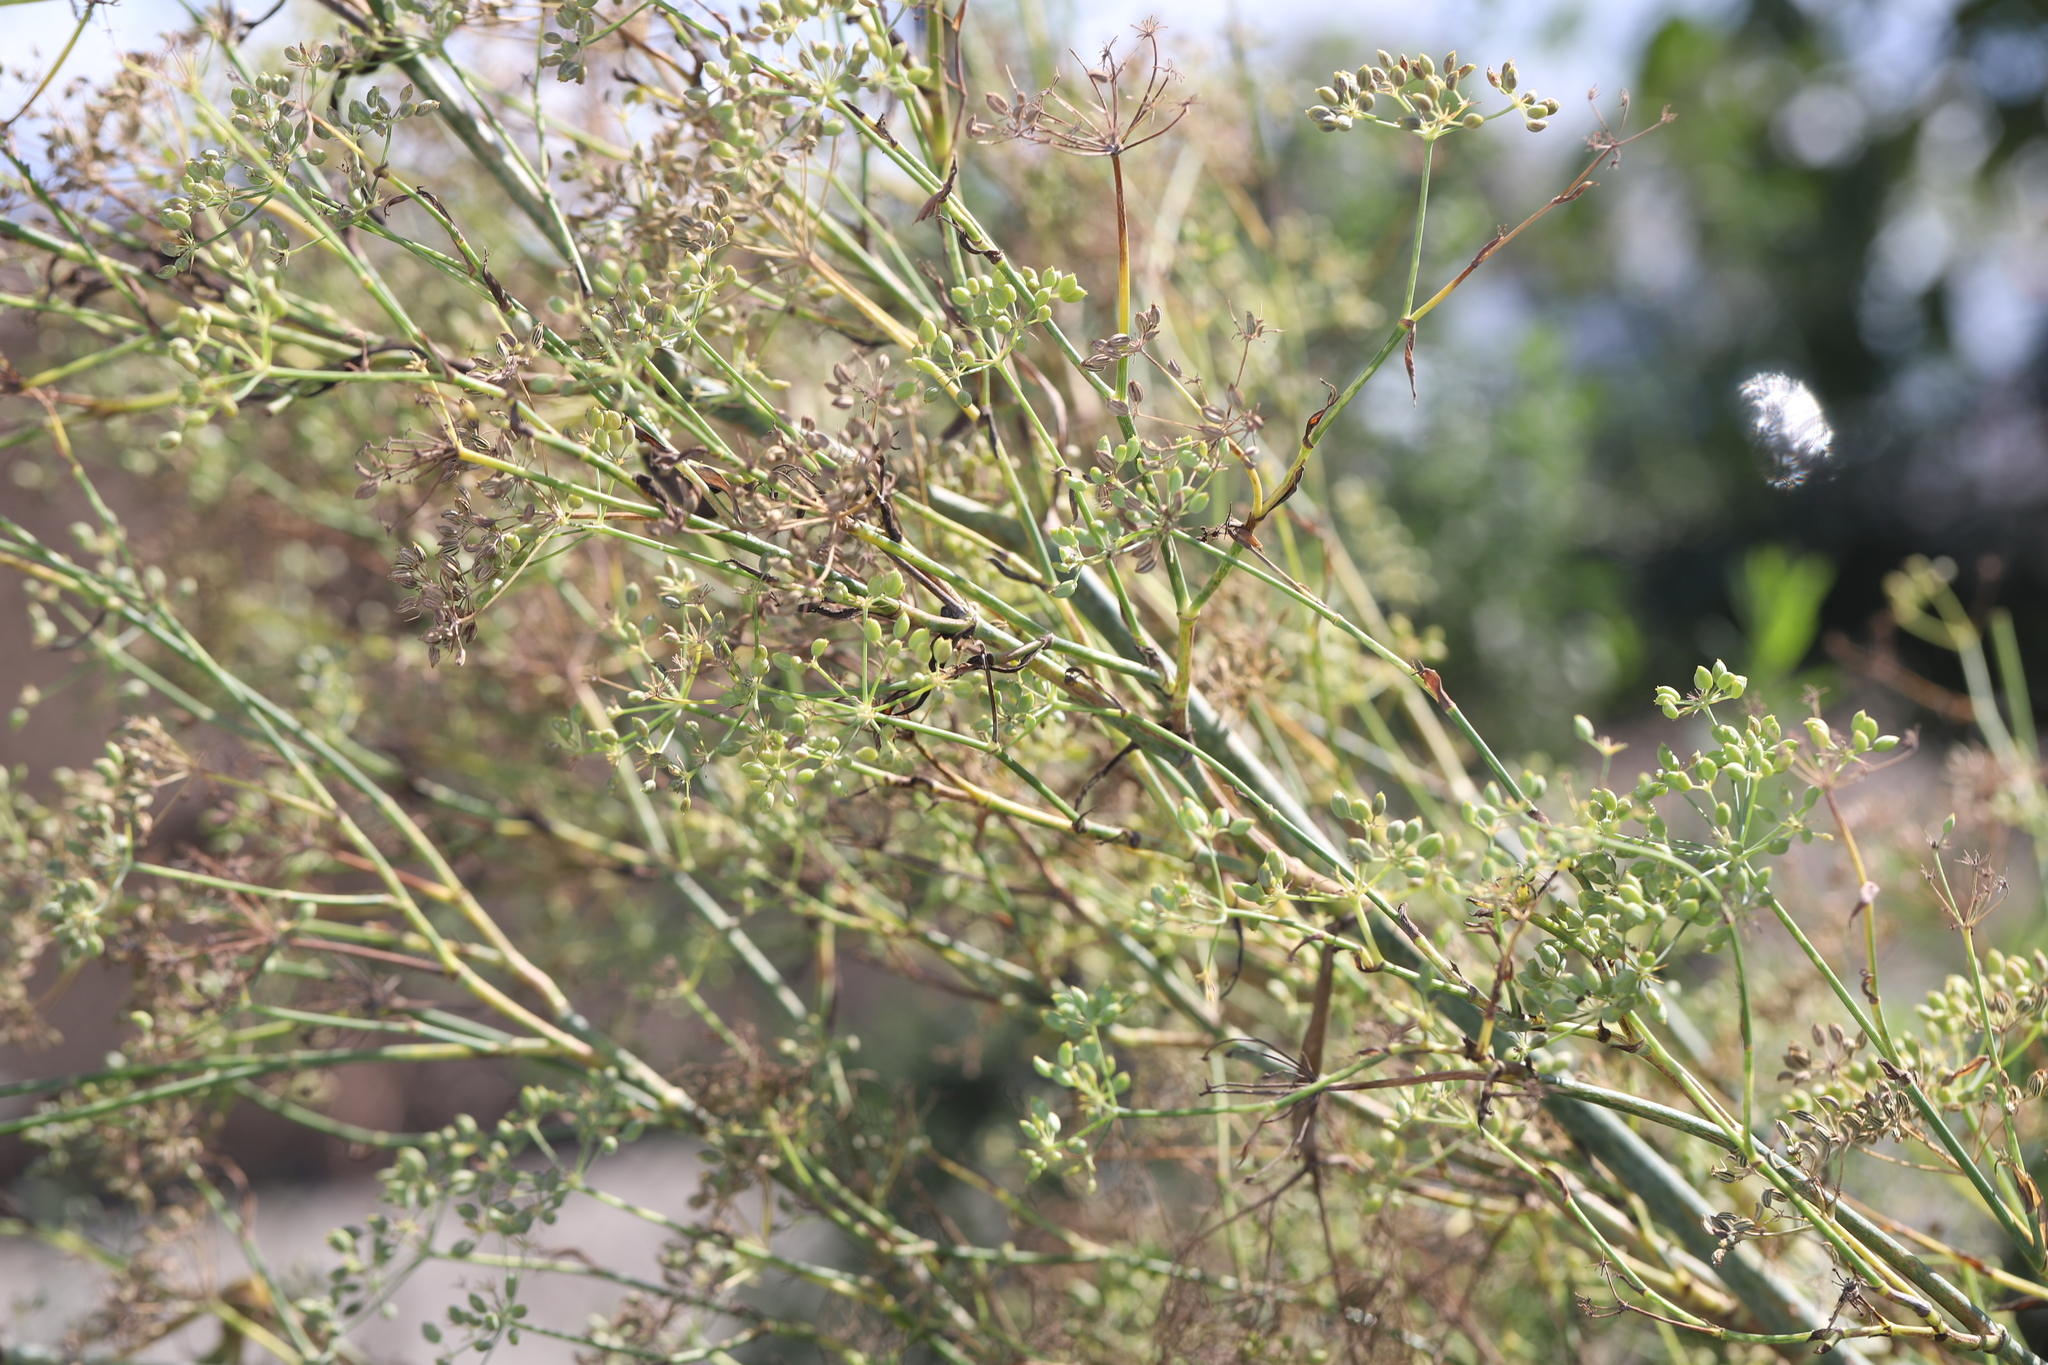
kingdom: Plantae
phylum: Tracheophyta
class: Magnoliopsida
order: Apiales
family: Apiaceae
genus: Foeniculum
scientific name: Foeniculum vulgare
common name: Fennel
